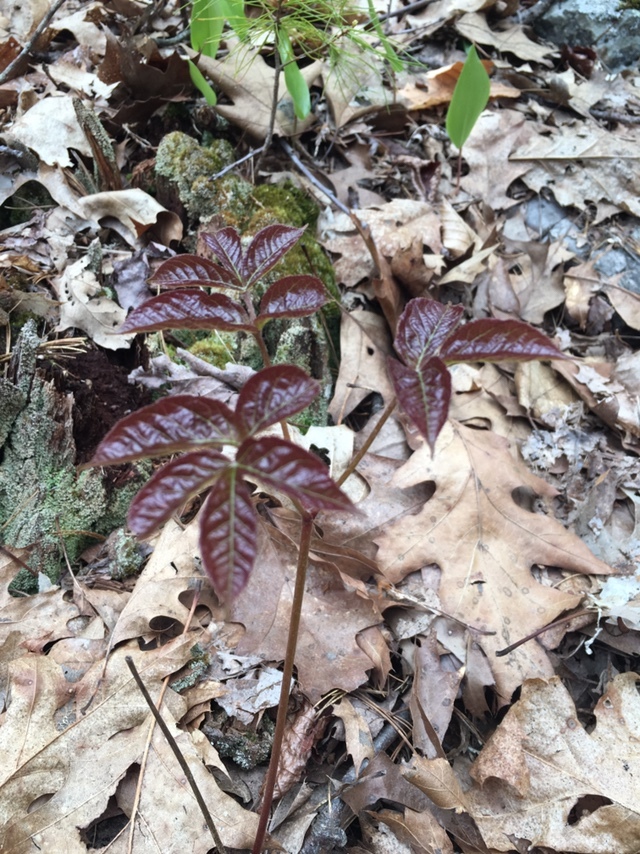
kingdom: Plantae
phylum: Tracheophyta
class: Magnoliopsida
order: Apiales
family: Araliaceae
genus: Aralia
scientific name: Aralia nudicaulis
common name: Wild sarsaparilla
